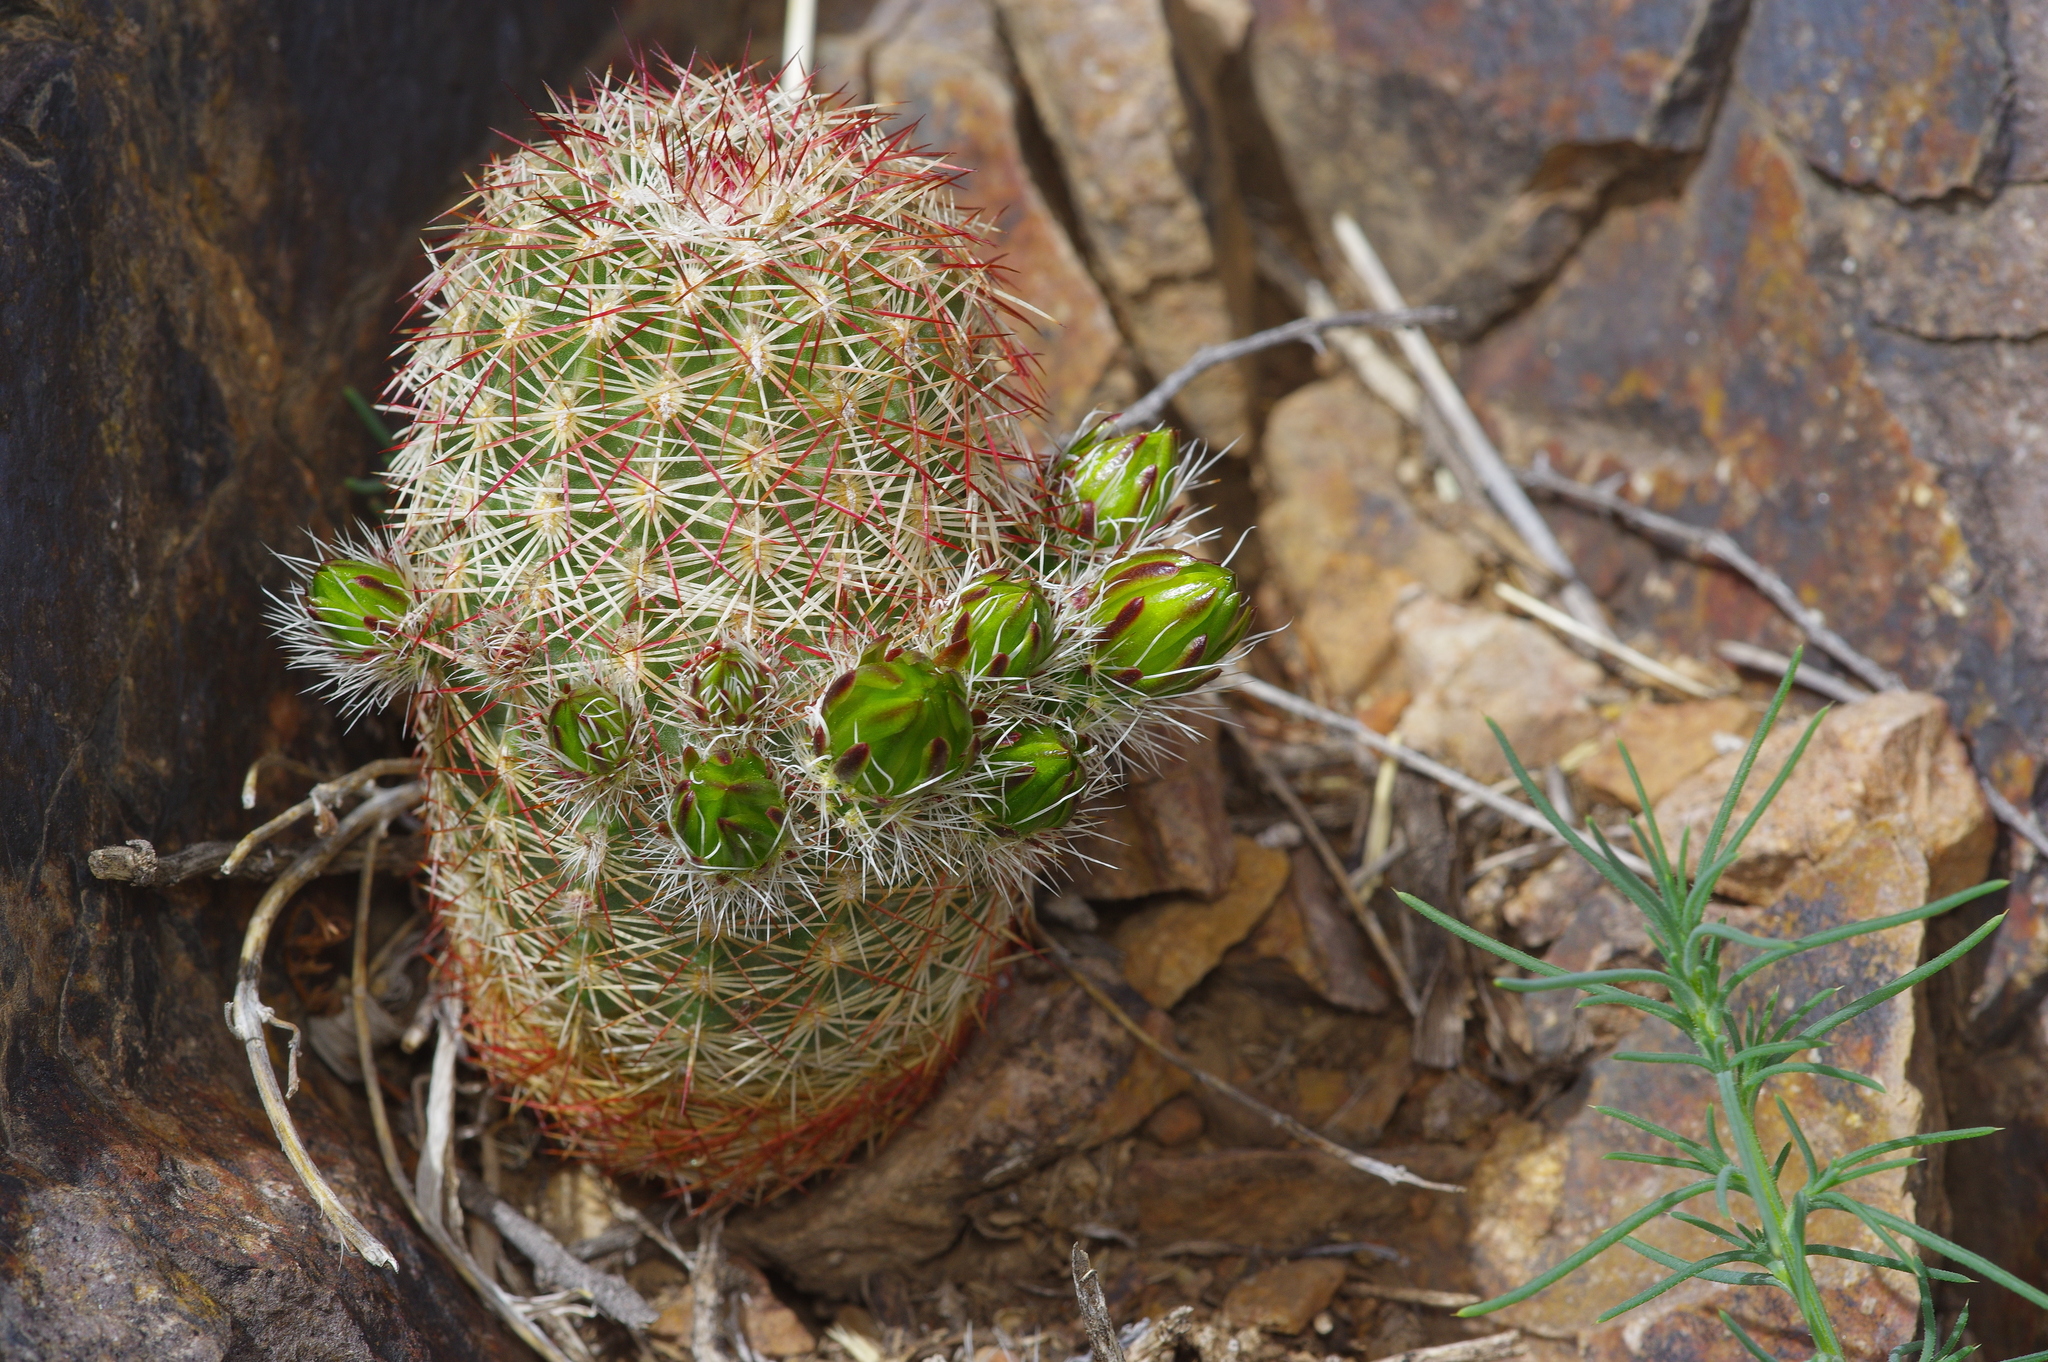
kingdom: Plantae
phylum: Tracheophyta
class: Magnoliopsida
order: Caryophyllales
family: Cactaceae
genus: Echinocereus
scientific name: Echinocereus viridiflorus
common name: Nylon hedgehog cactus
